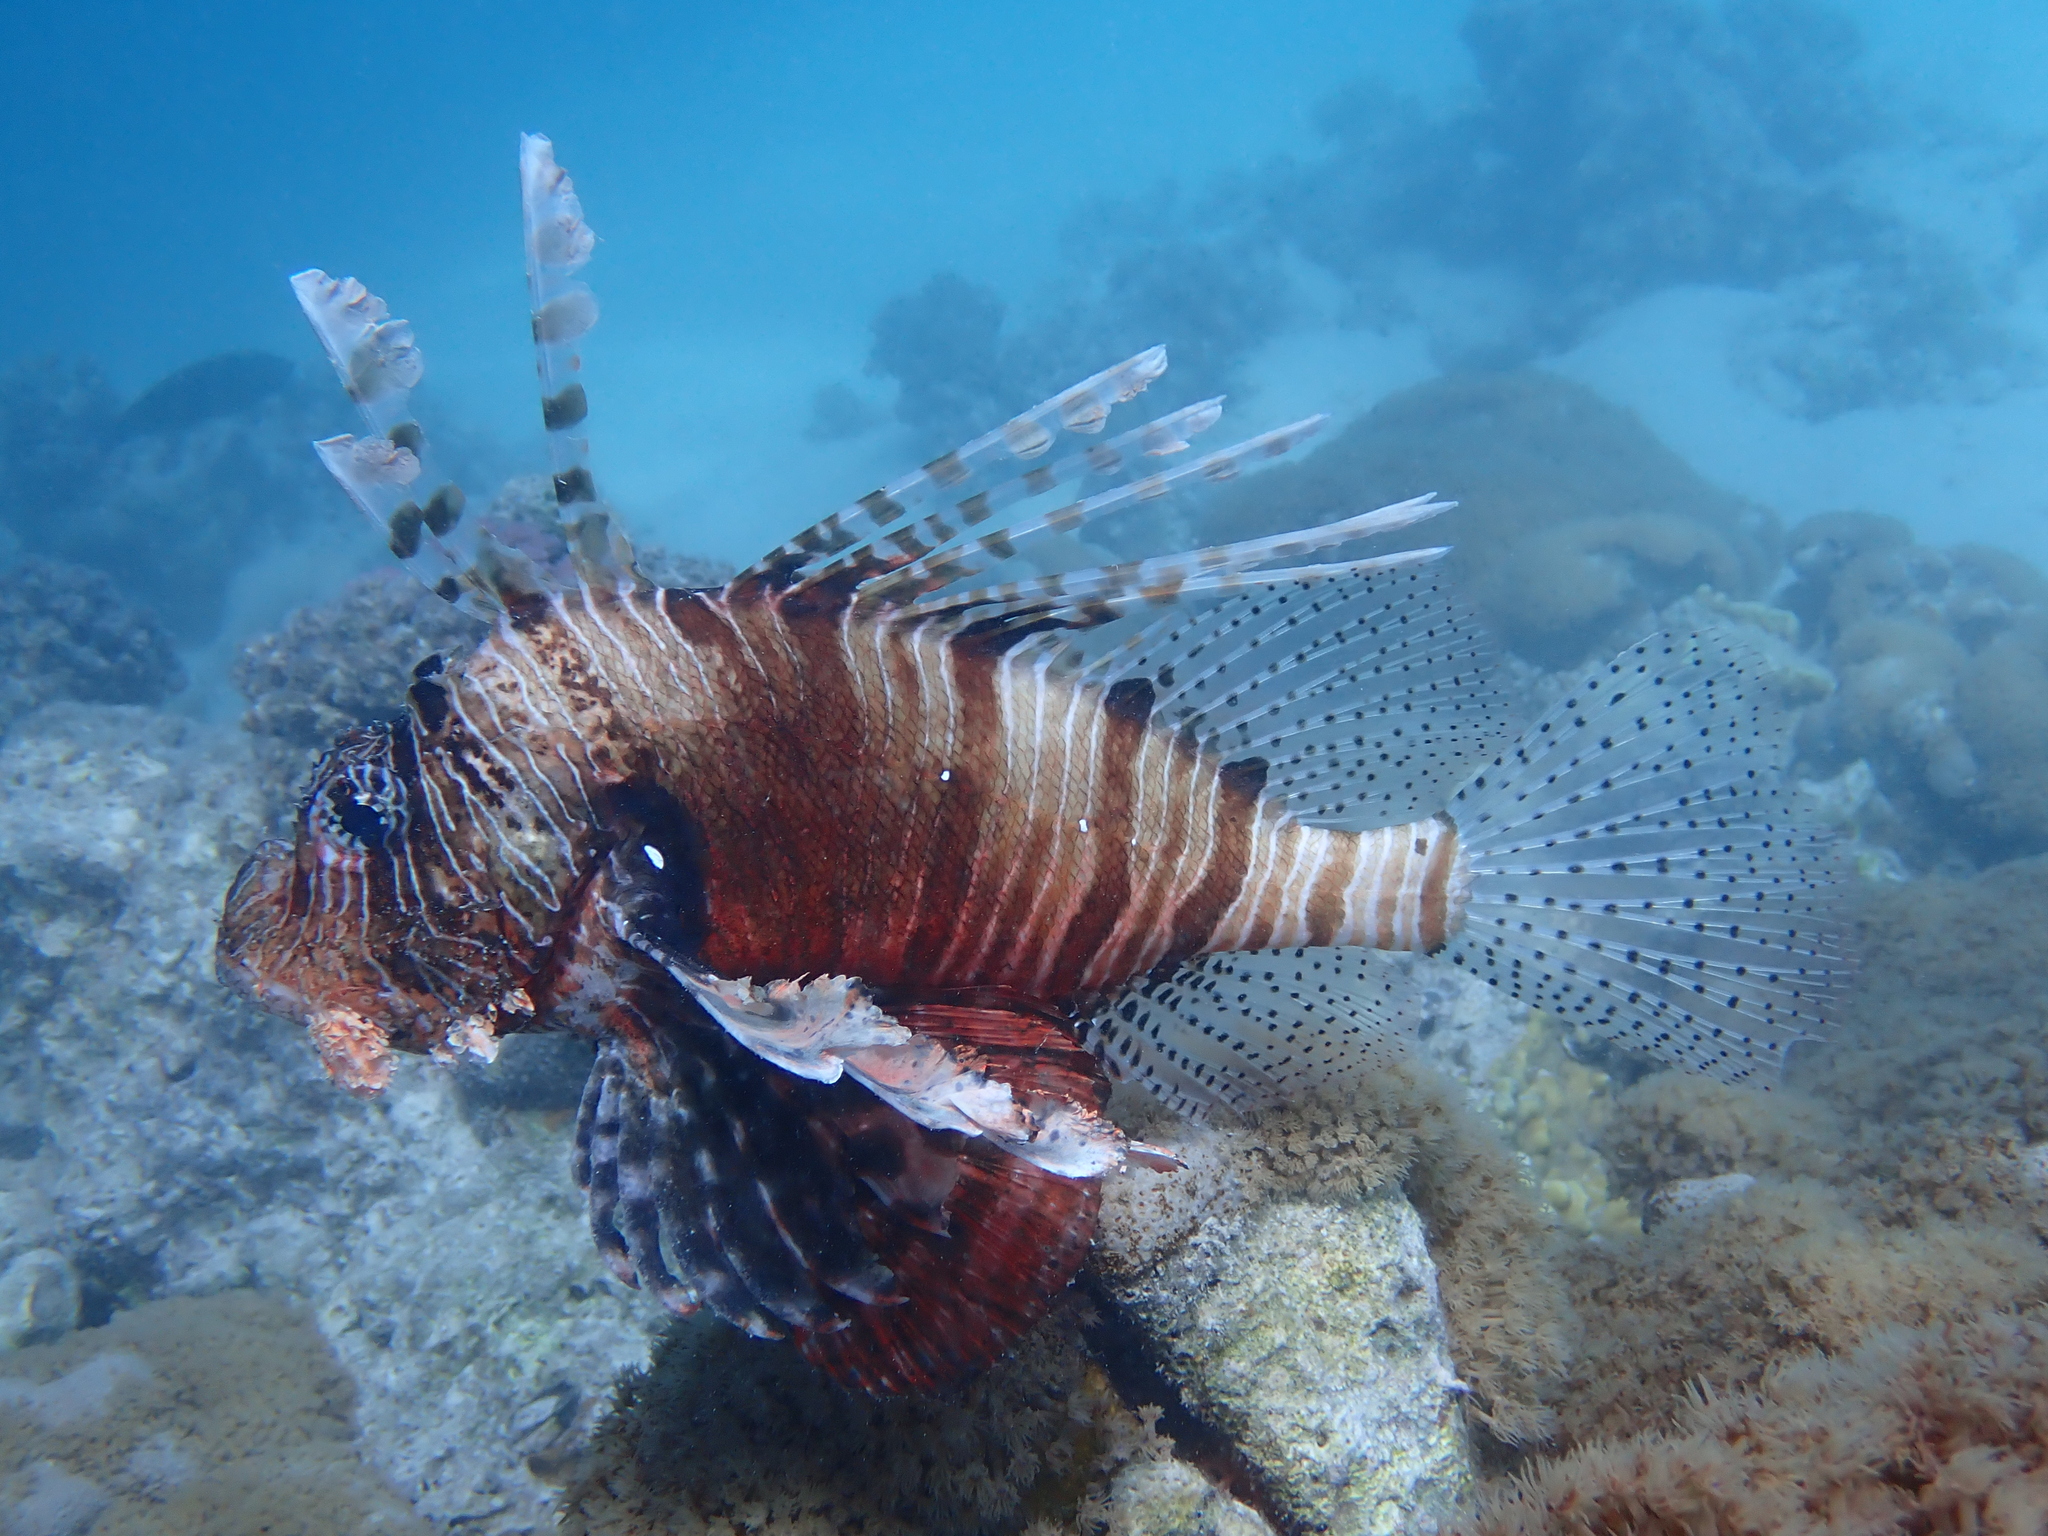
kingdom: Animalia
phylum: Chordata
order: Scorpaeniformes
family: Scorpaenidae
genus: Pterois
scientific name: Pterois miles
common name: Devil firefish
